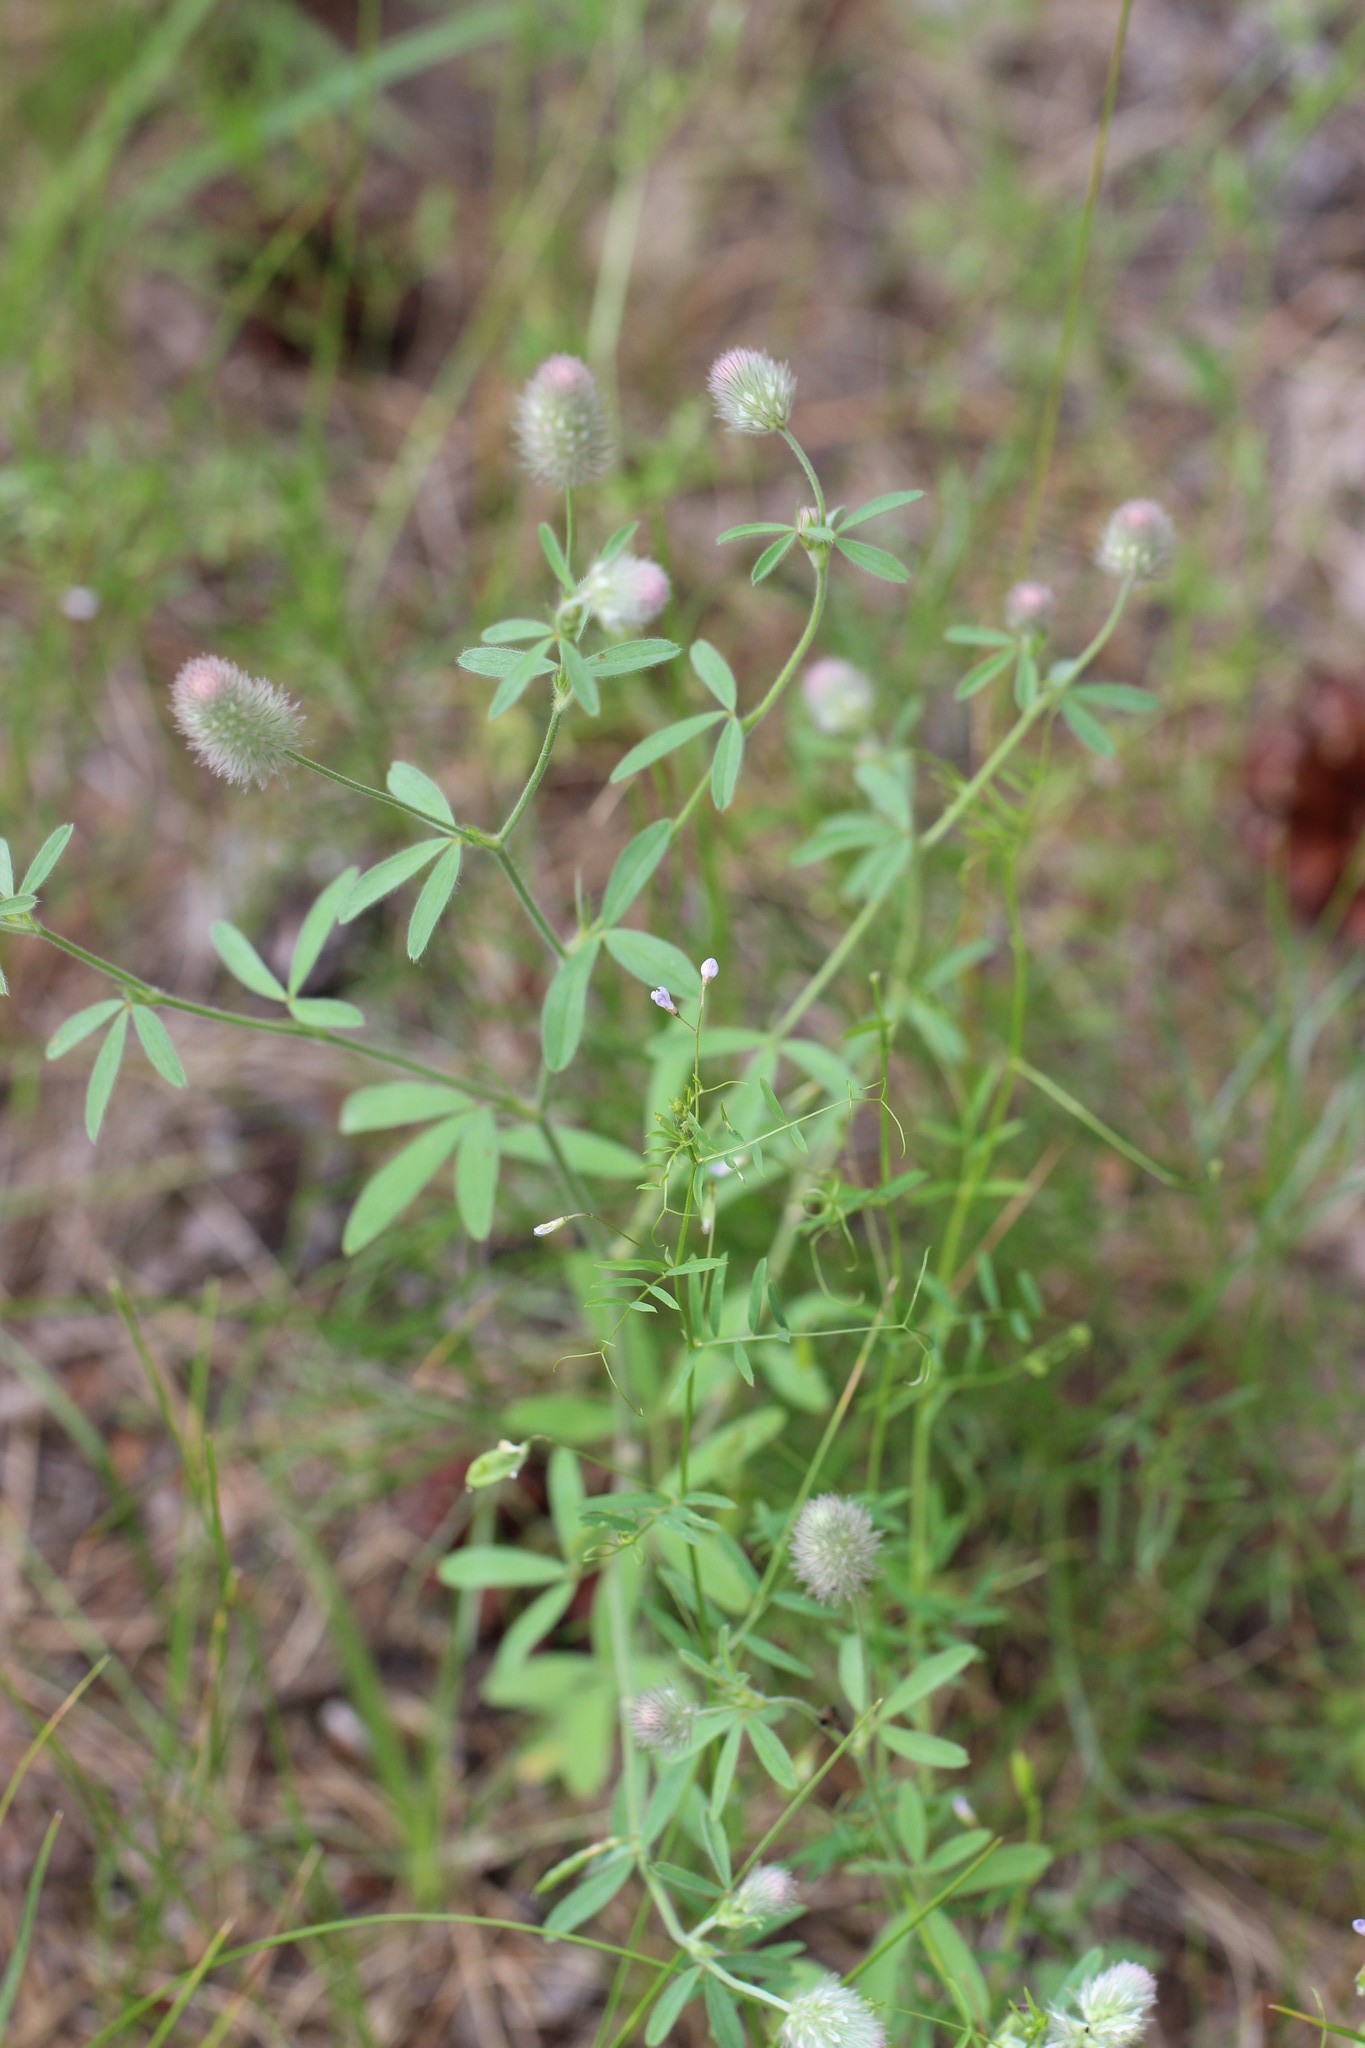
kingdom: Plantae
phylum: Tracheophyta
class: Magnoliopsida
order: Fabales
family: Fabaceae
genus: Trifolium
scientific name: Trifolium arvense
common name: Hare's-foot clover
